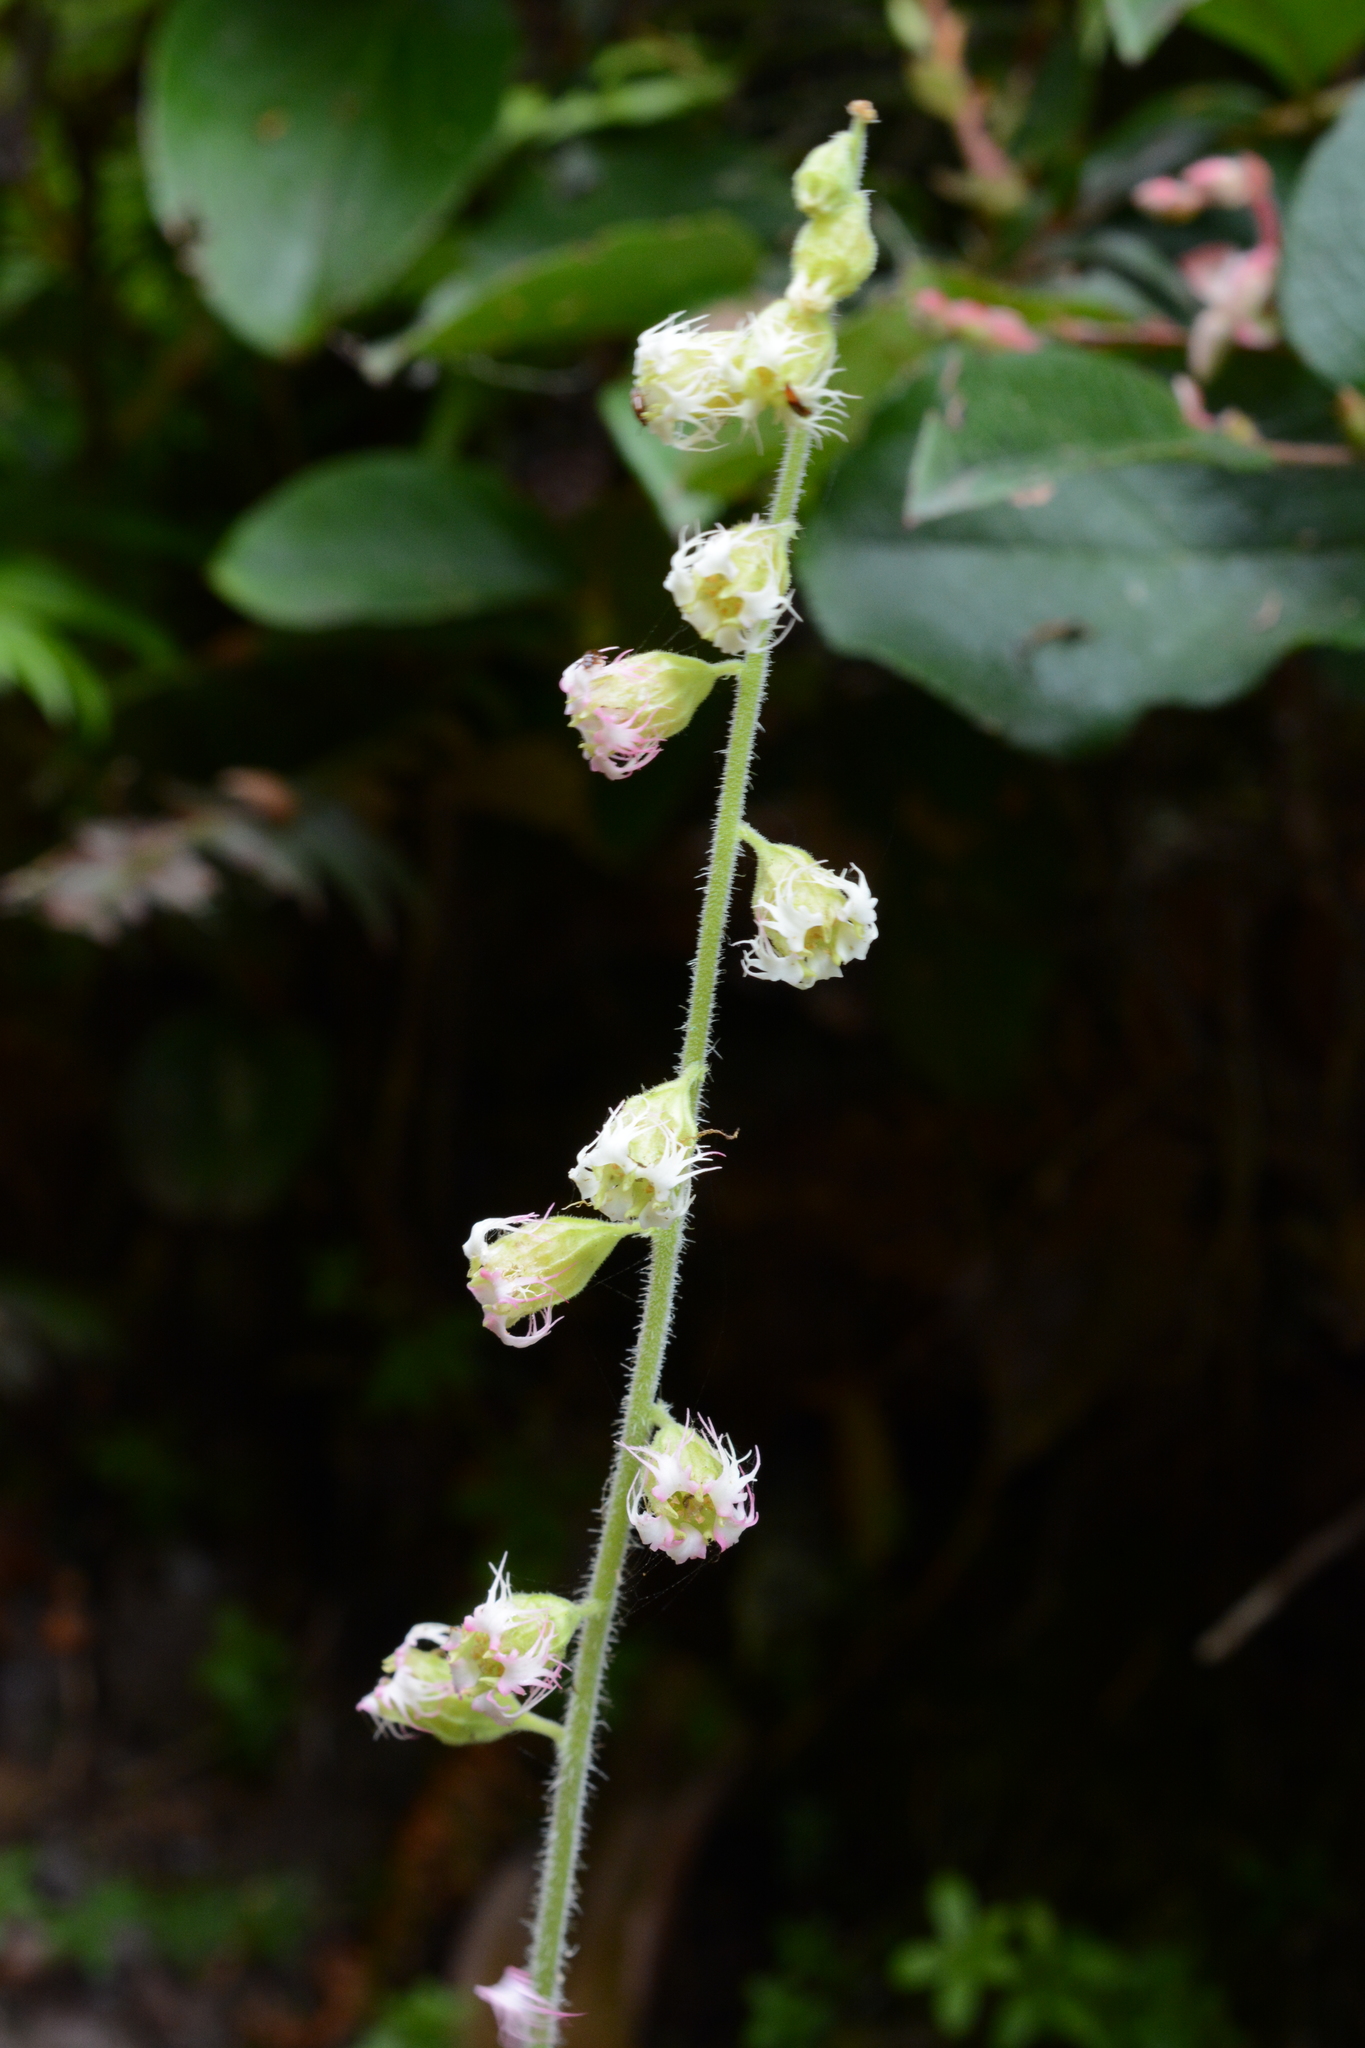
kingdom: Plantae
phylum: Tracheophyta
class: Magnoliopsida
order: Saxifragales
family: Saxifragaceae
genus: Tellima
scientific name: Tellima grandiflora
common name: Fringecups
